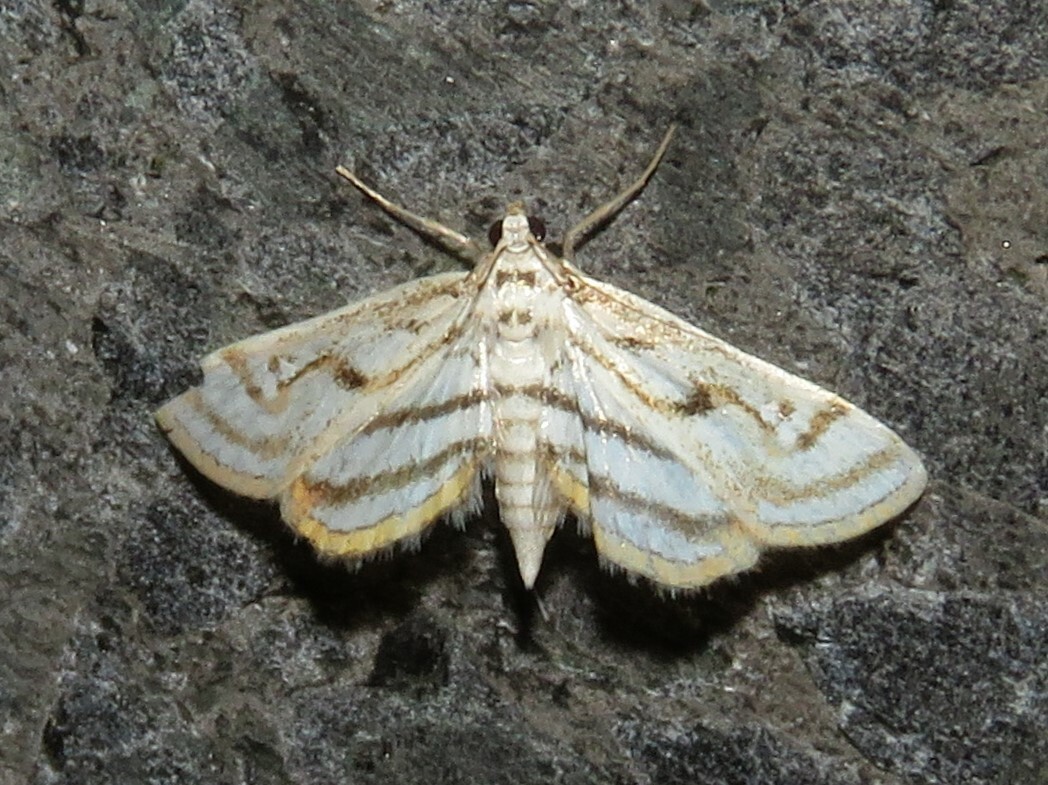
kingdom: Animalia
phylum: Arthropoda
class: Insecta
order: Lepidoptera
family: Crambidae
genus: Parapoynx
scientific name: Parapoynx badiusalis
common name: Chestnut-marked pondweed moth
